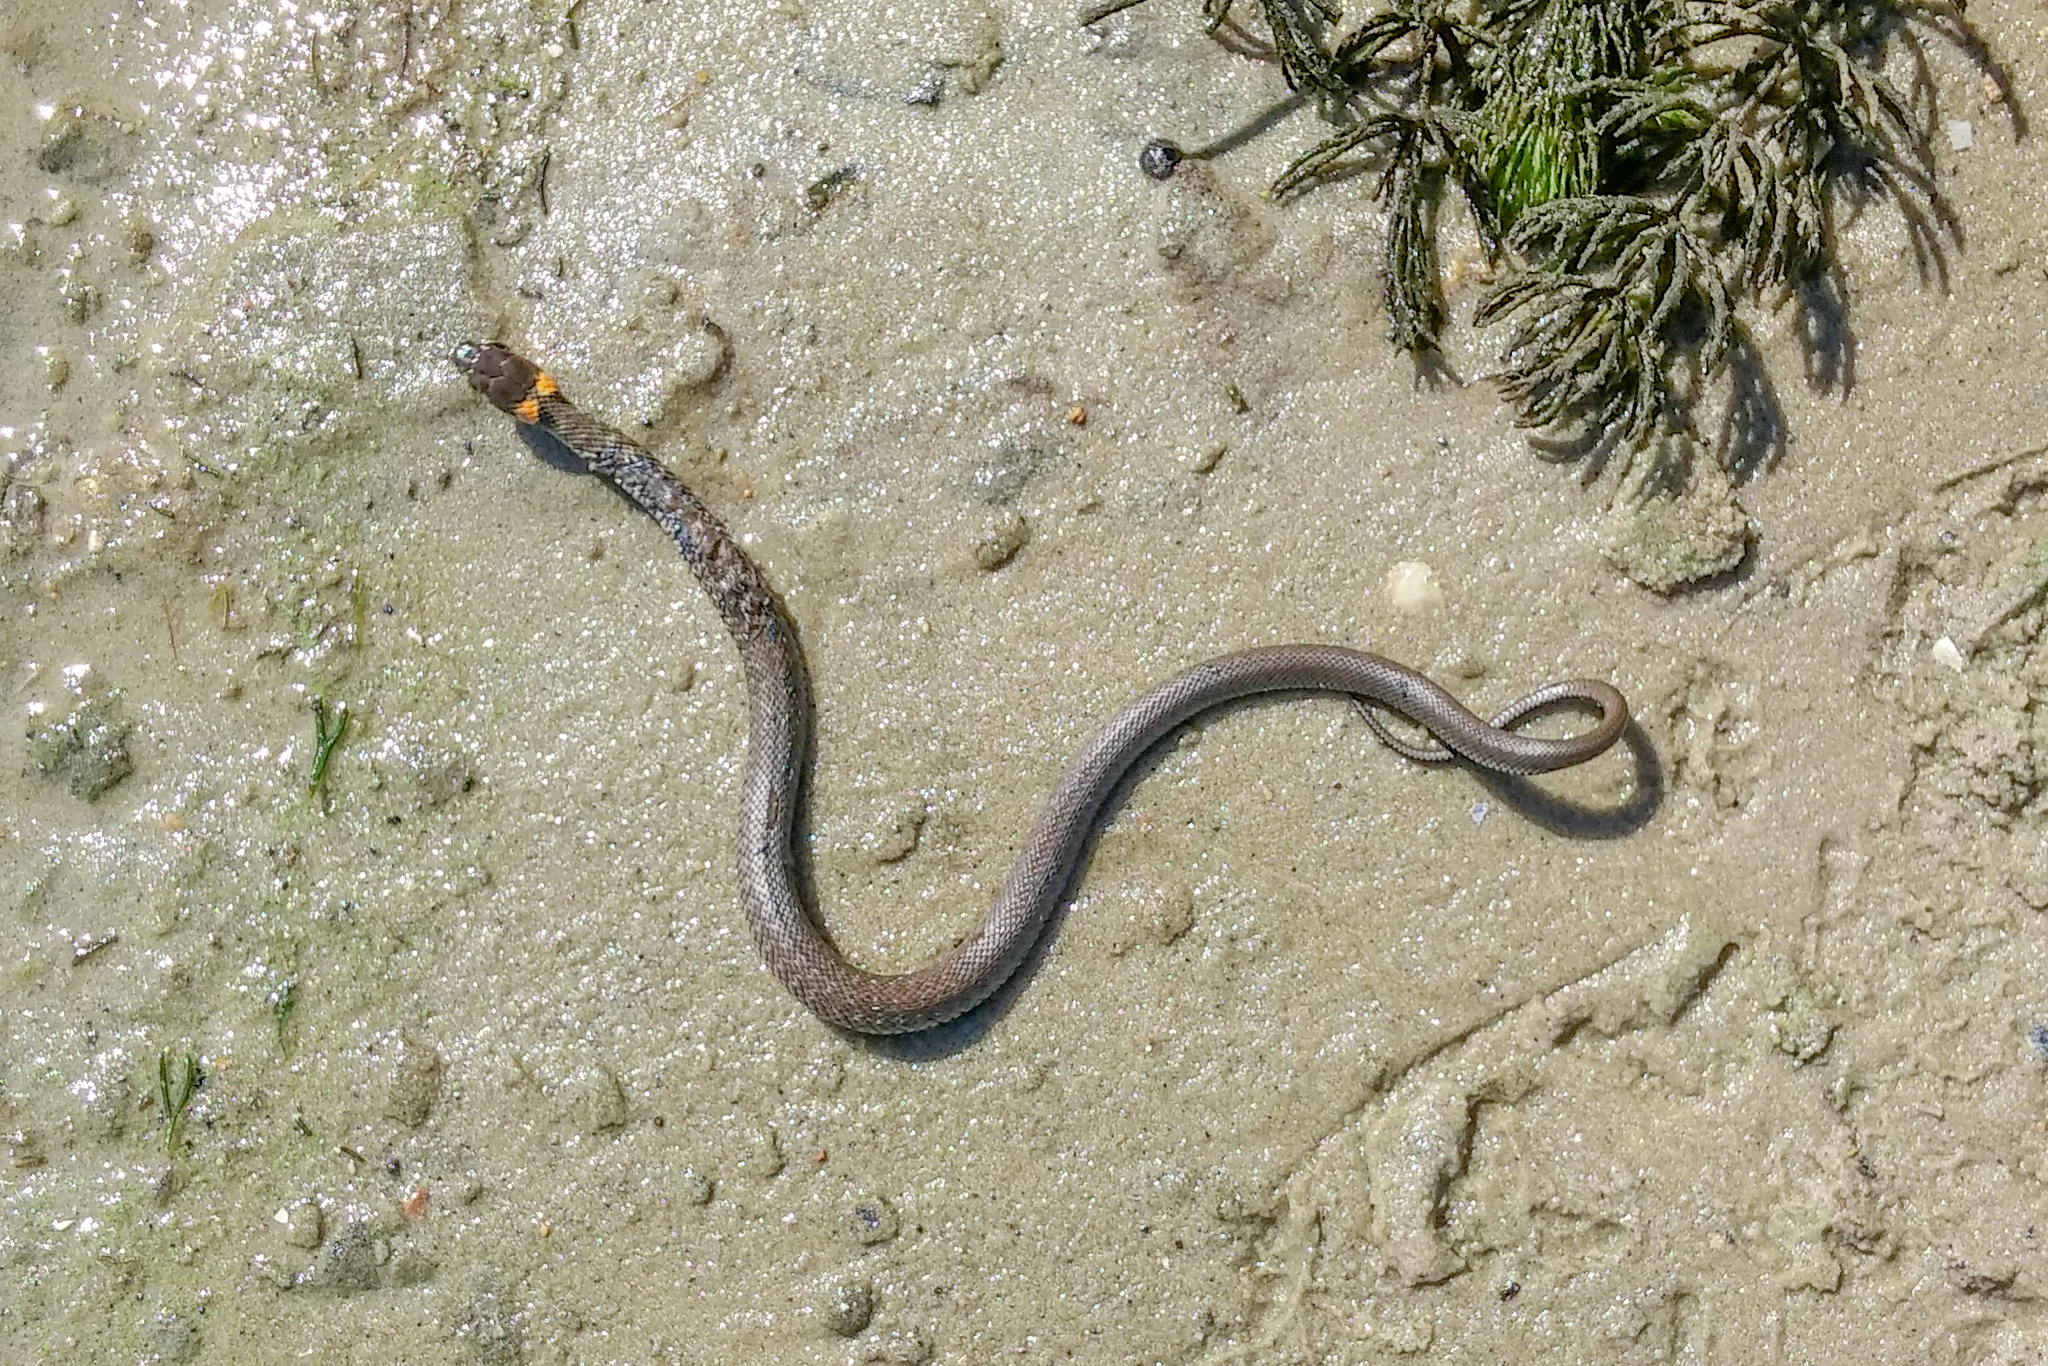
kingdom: Animalia
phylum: Chordata
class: Squamata
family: Colubridae
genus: Natrix
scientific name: Natrix natrix
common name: Grass snake
